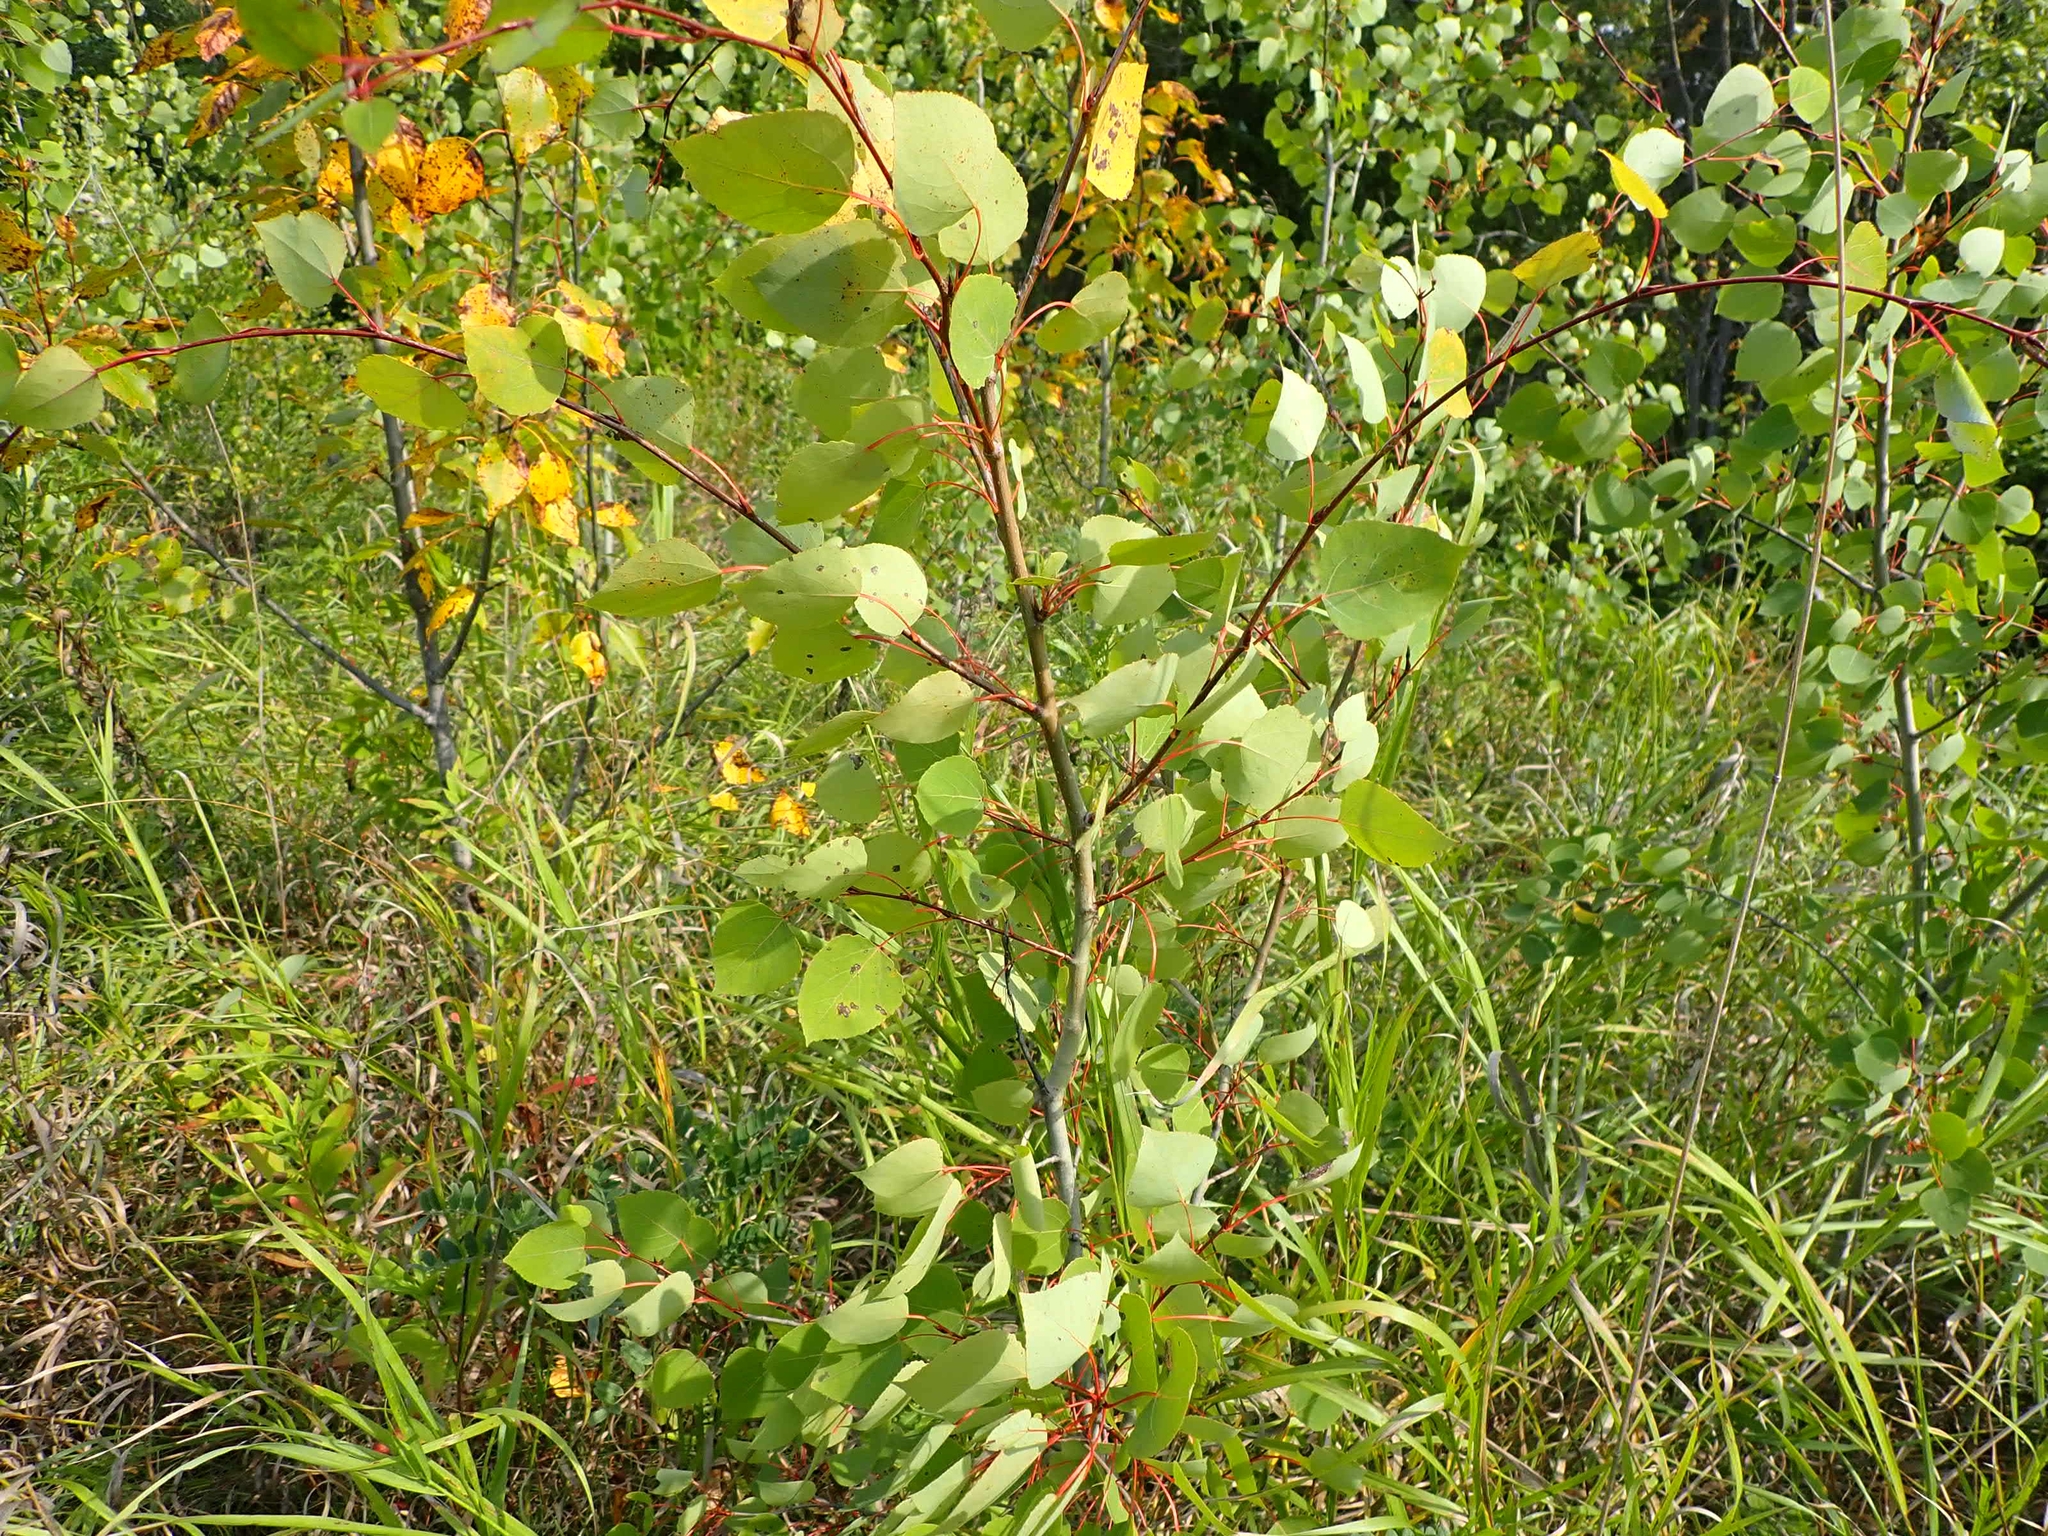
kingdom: Plantae
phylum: Tracheophyta
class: Magnoliopsida
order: Malpighiales
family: Salicaceae
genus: Populus
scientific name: Populus tremuloides
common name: Quaking aspen
